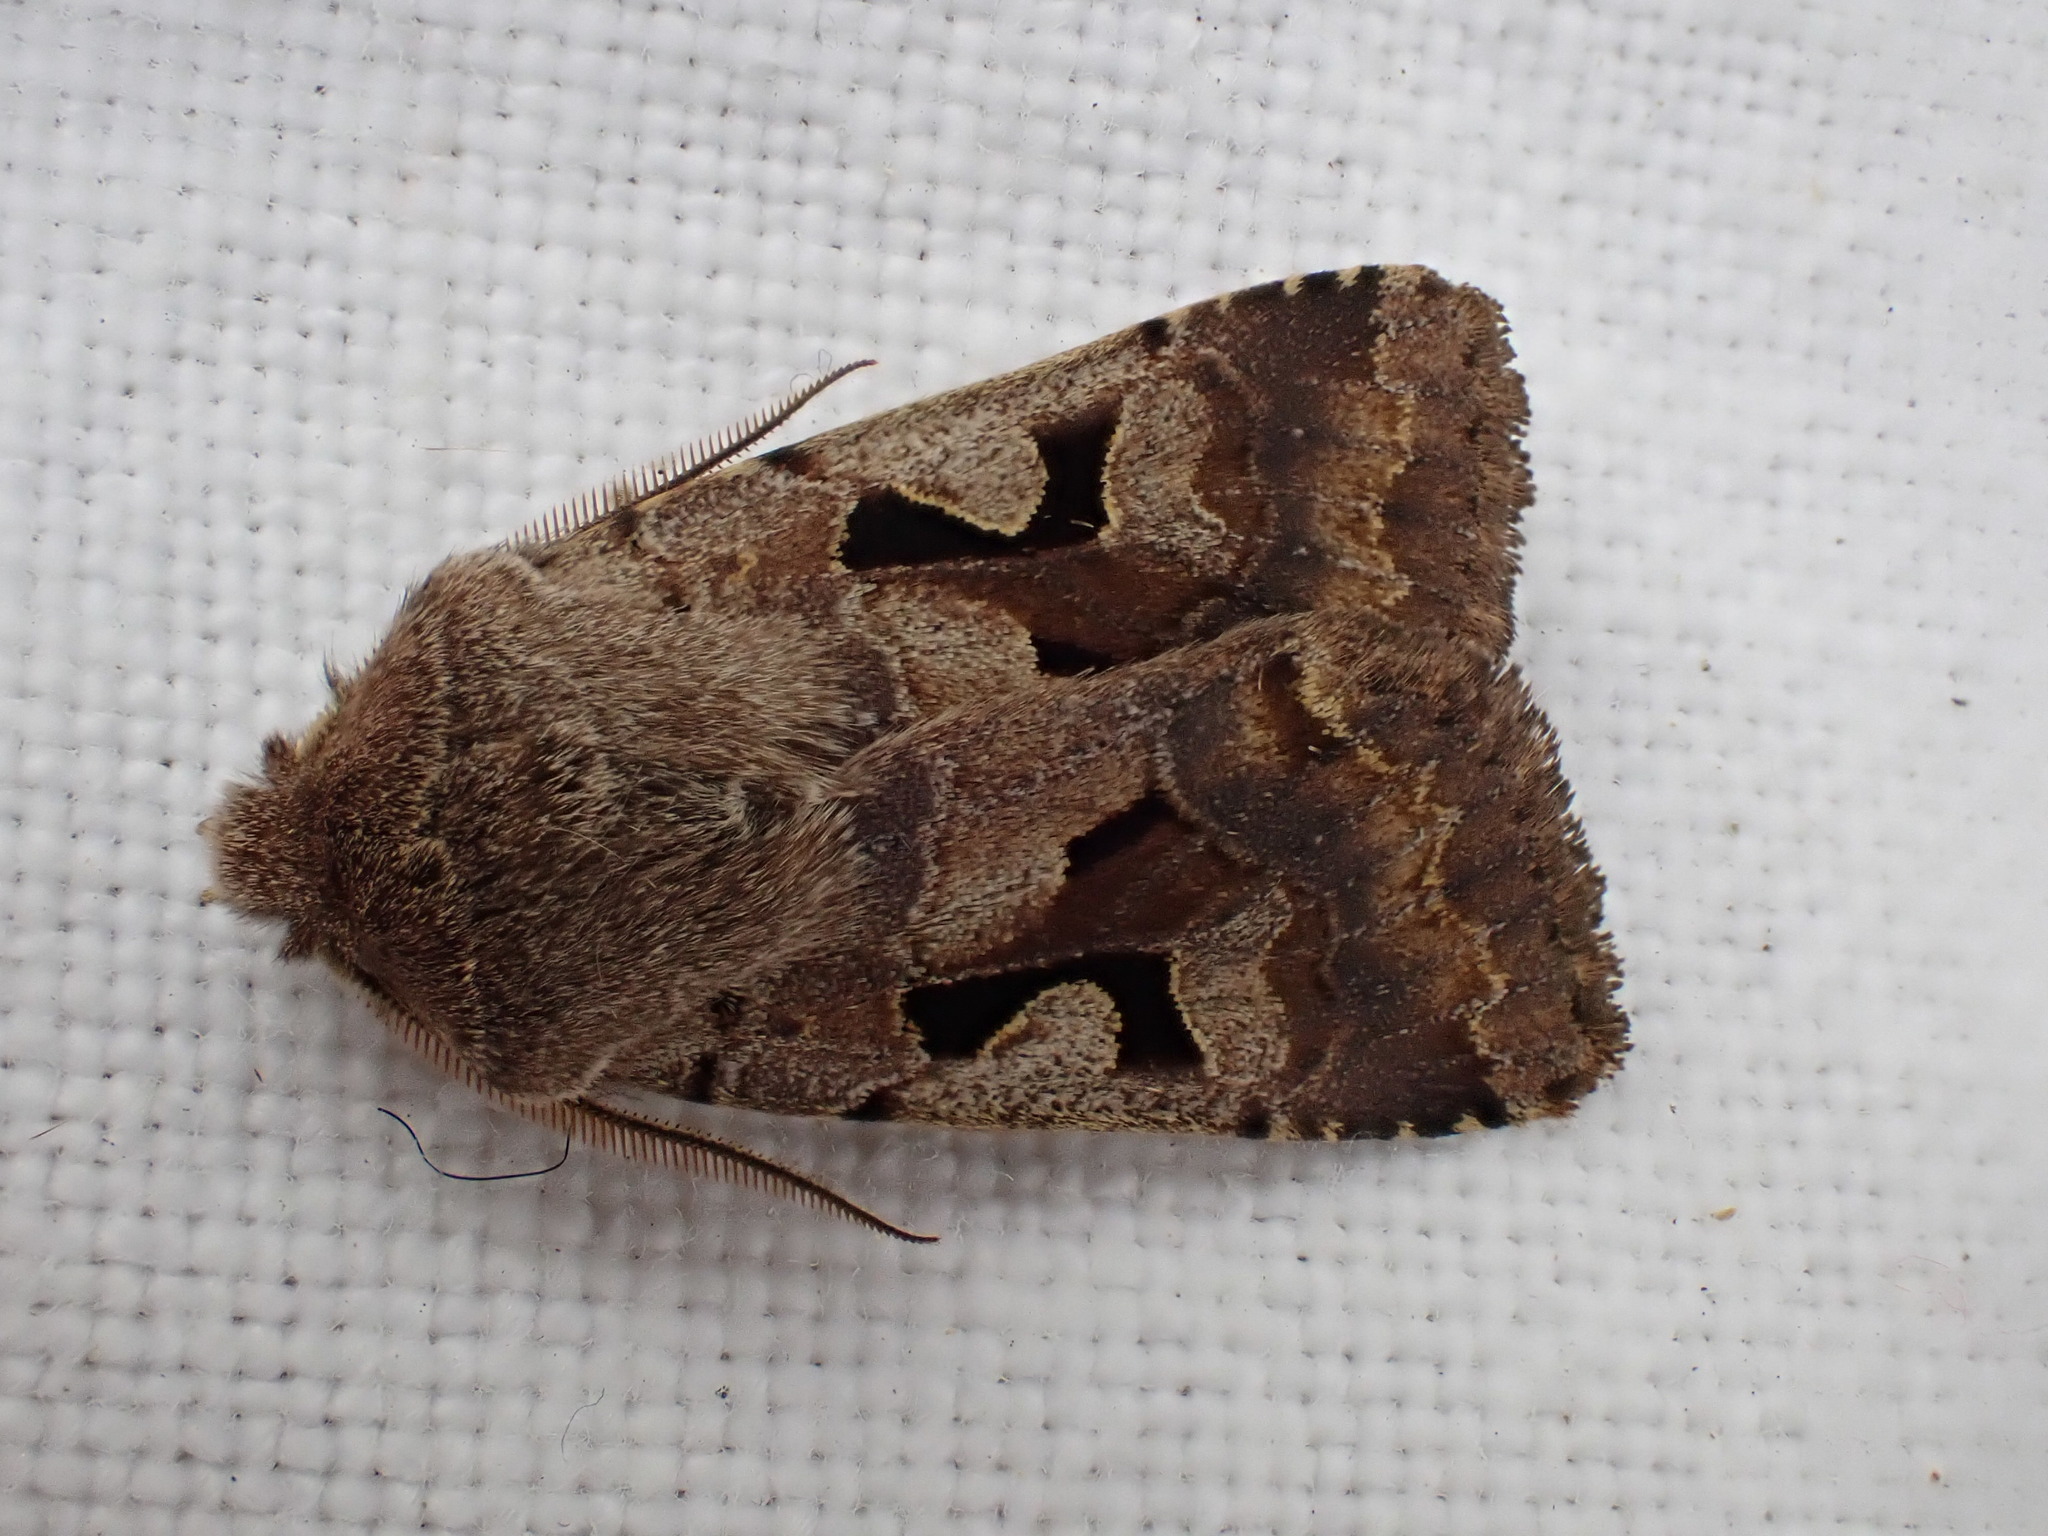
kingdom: Animalia
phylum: Arthropoda
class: Insecta
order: Lepidoptera
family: Noctuidae
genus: Orthosia
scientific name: Orthosia gothica
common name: Hebrew character
